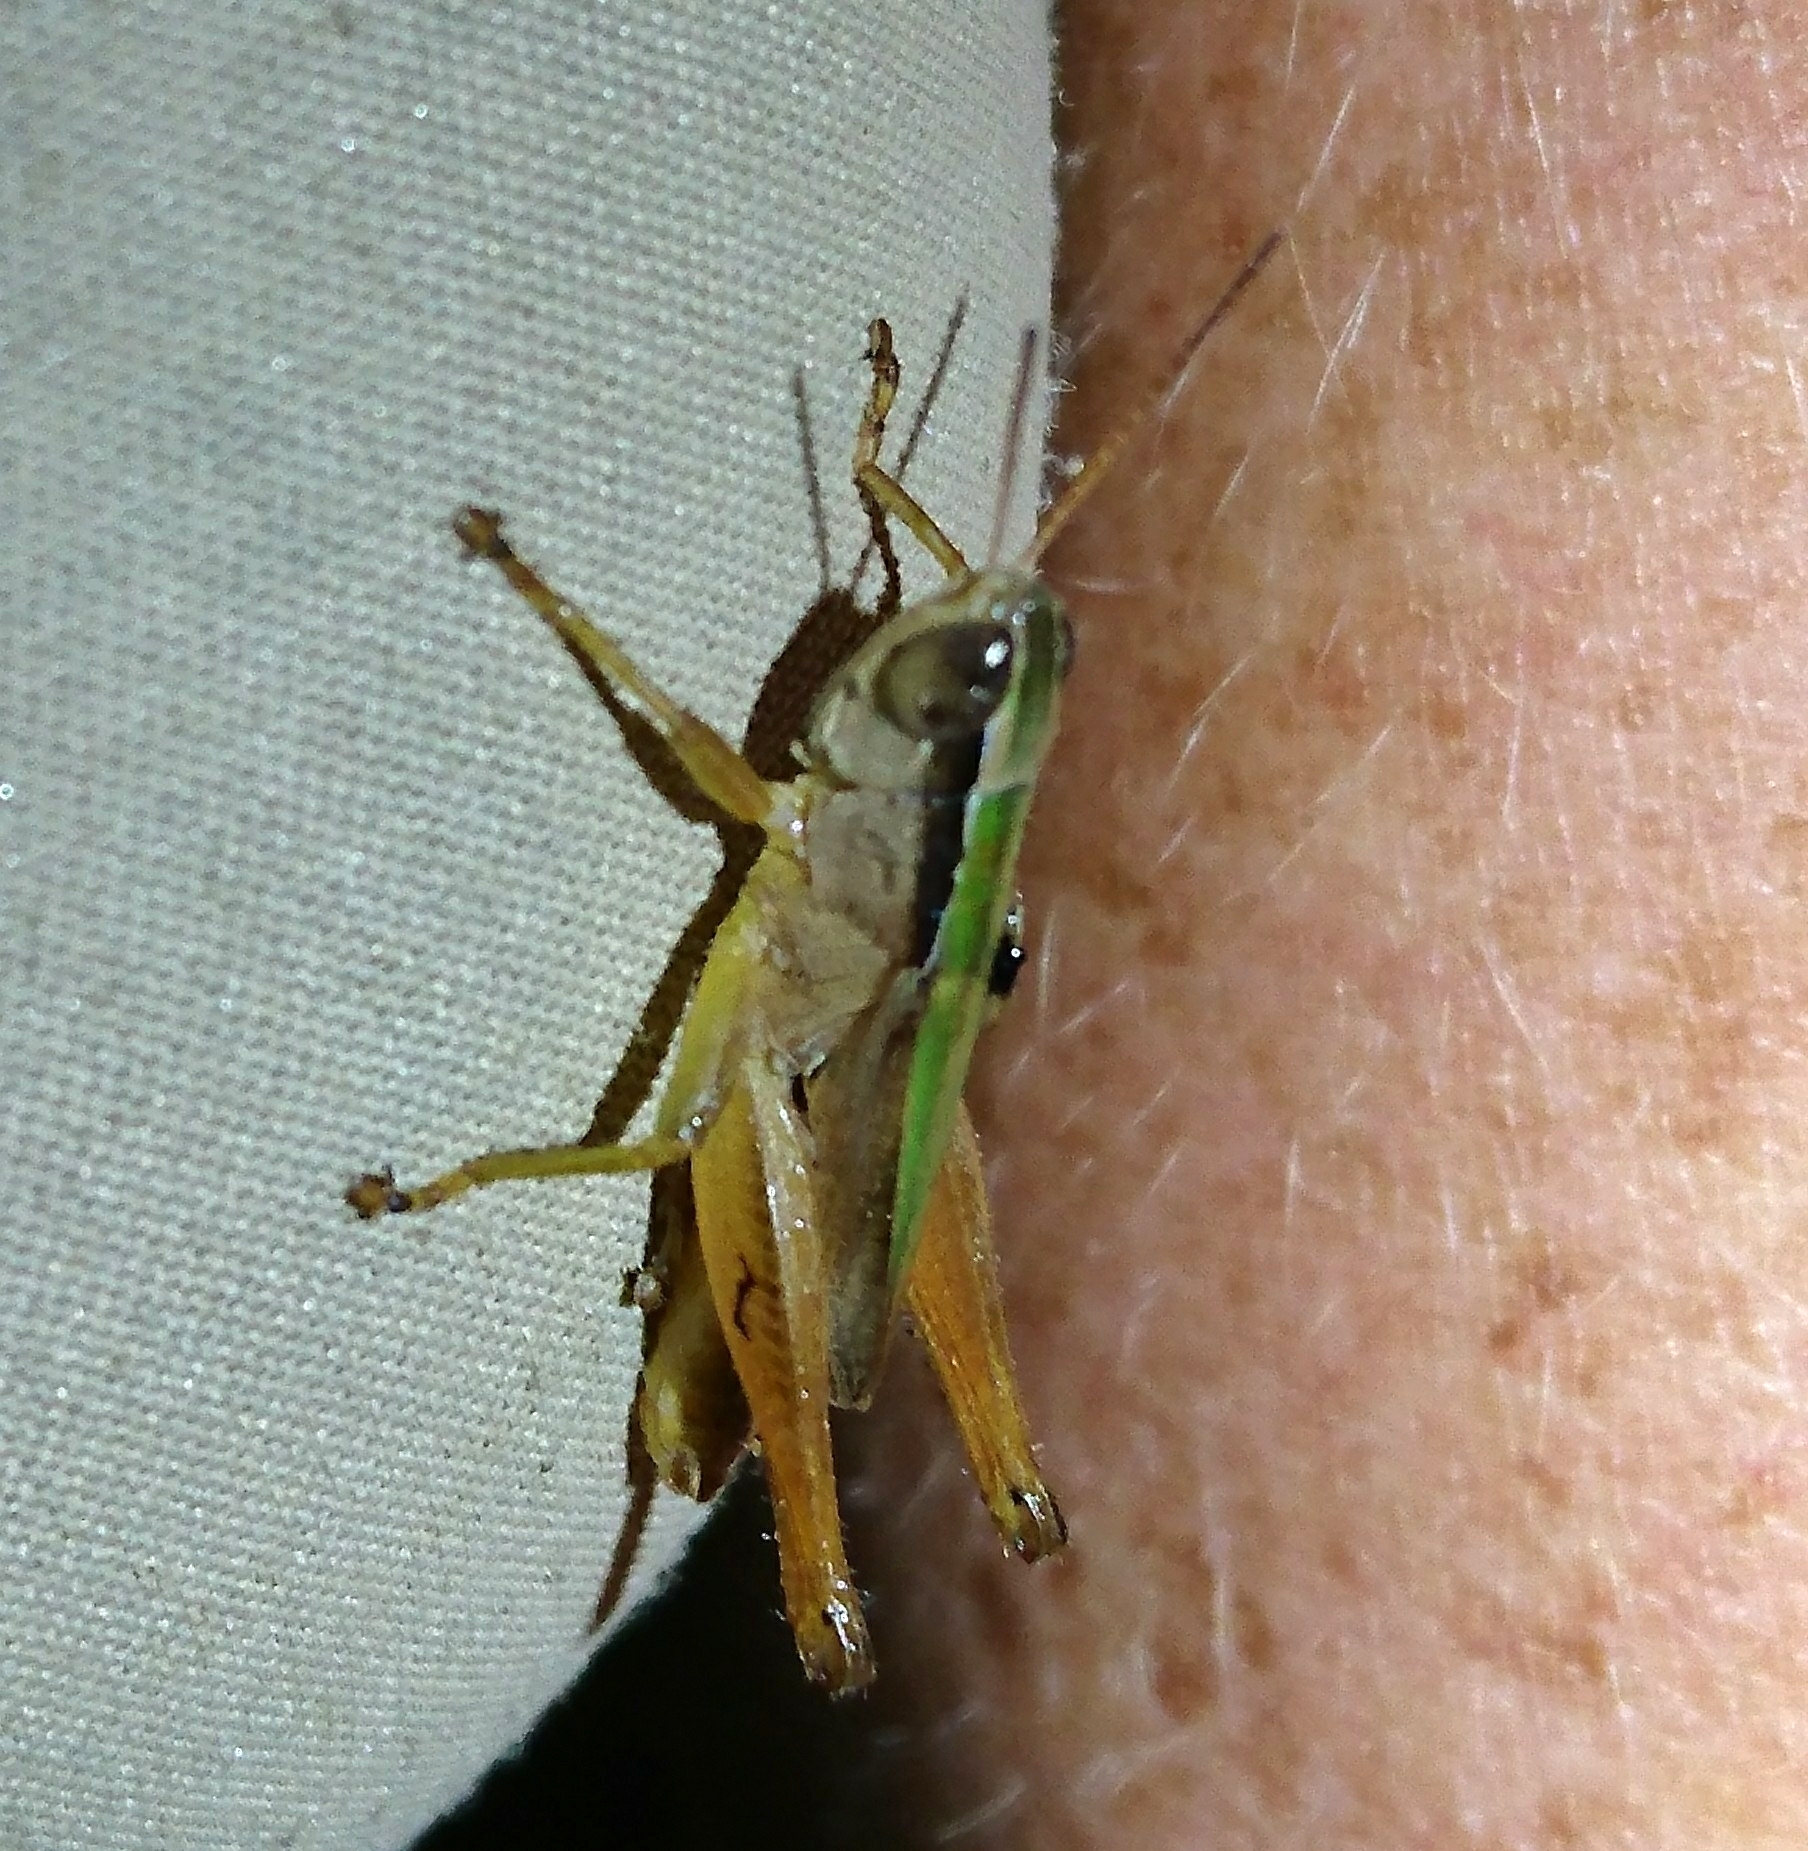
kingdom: Animalia
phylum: Arthropoda
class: Insecta
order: Orthoptera
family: Acrididae
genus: Dichromorpha
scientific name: Dichromorpha elegans
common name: Elegant grasshopper
